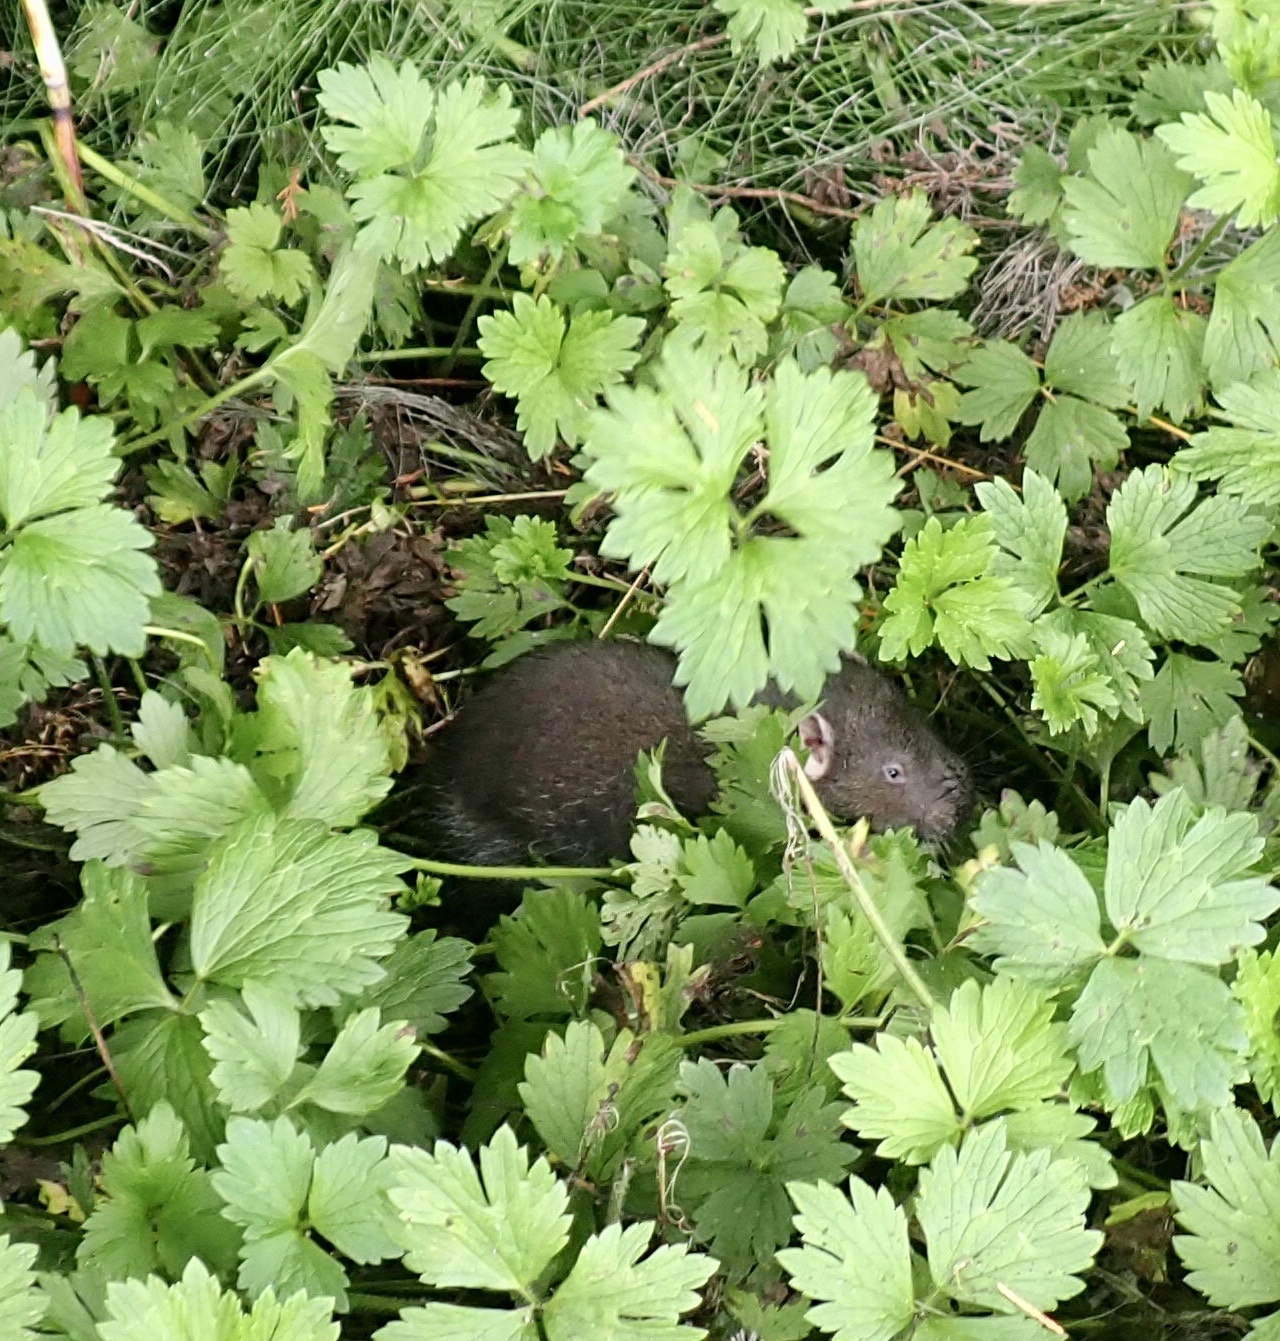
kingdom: Animalia
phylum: Chordata
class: Mammalia
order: Rodentia
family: Aplodontiidae
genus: Aplodontia
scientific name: Aplodontia rufa
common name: Mountain beaver
